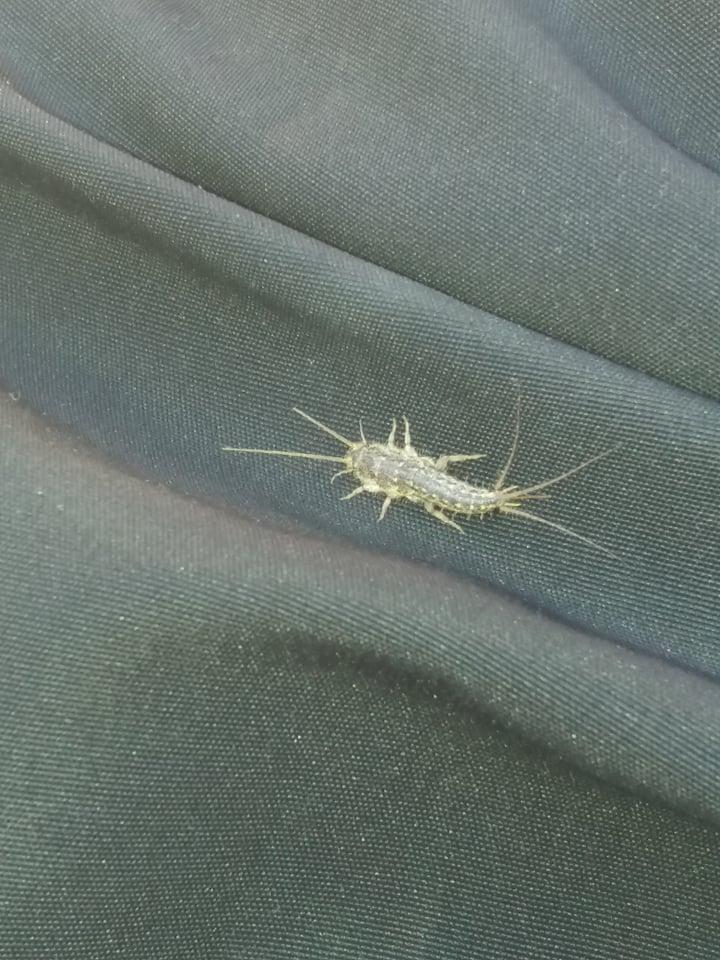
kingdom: Animalia
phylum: Arthropoda
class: Insecta
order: Zygentoma
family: Lepismatidae
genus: Ctenolepisma
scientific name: Ctenolepisma lineata
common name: Four-lined silverfish
